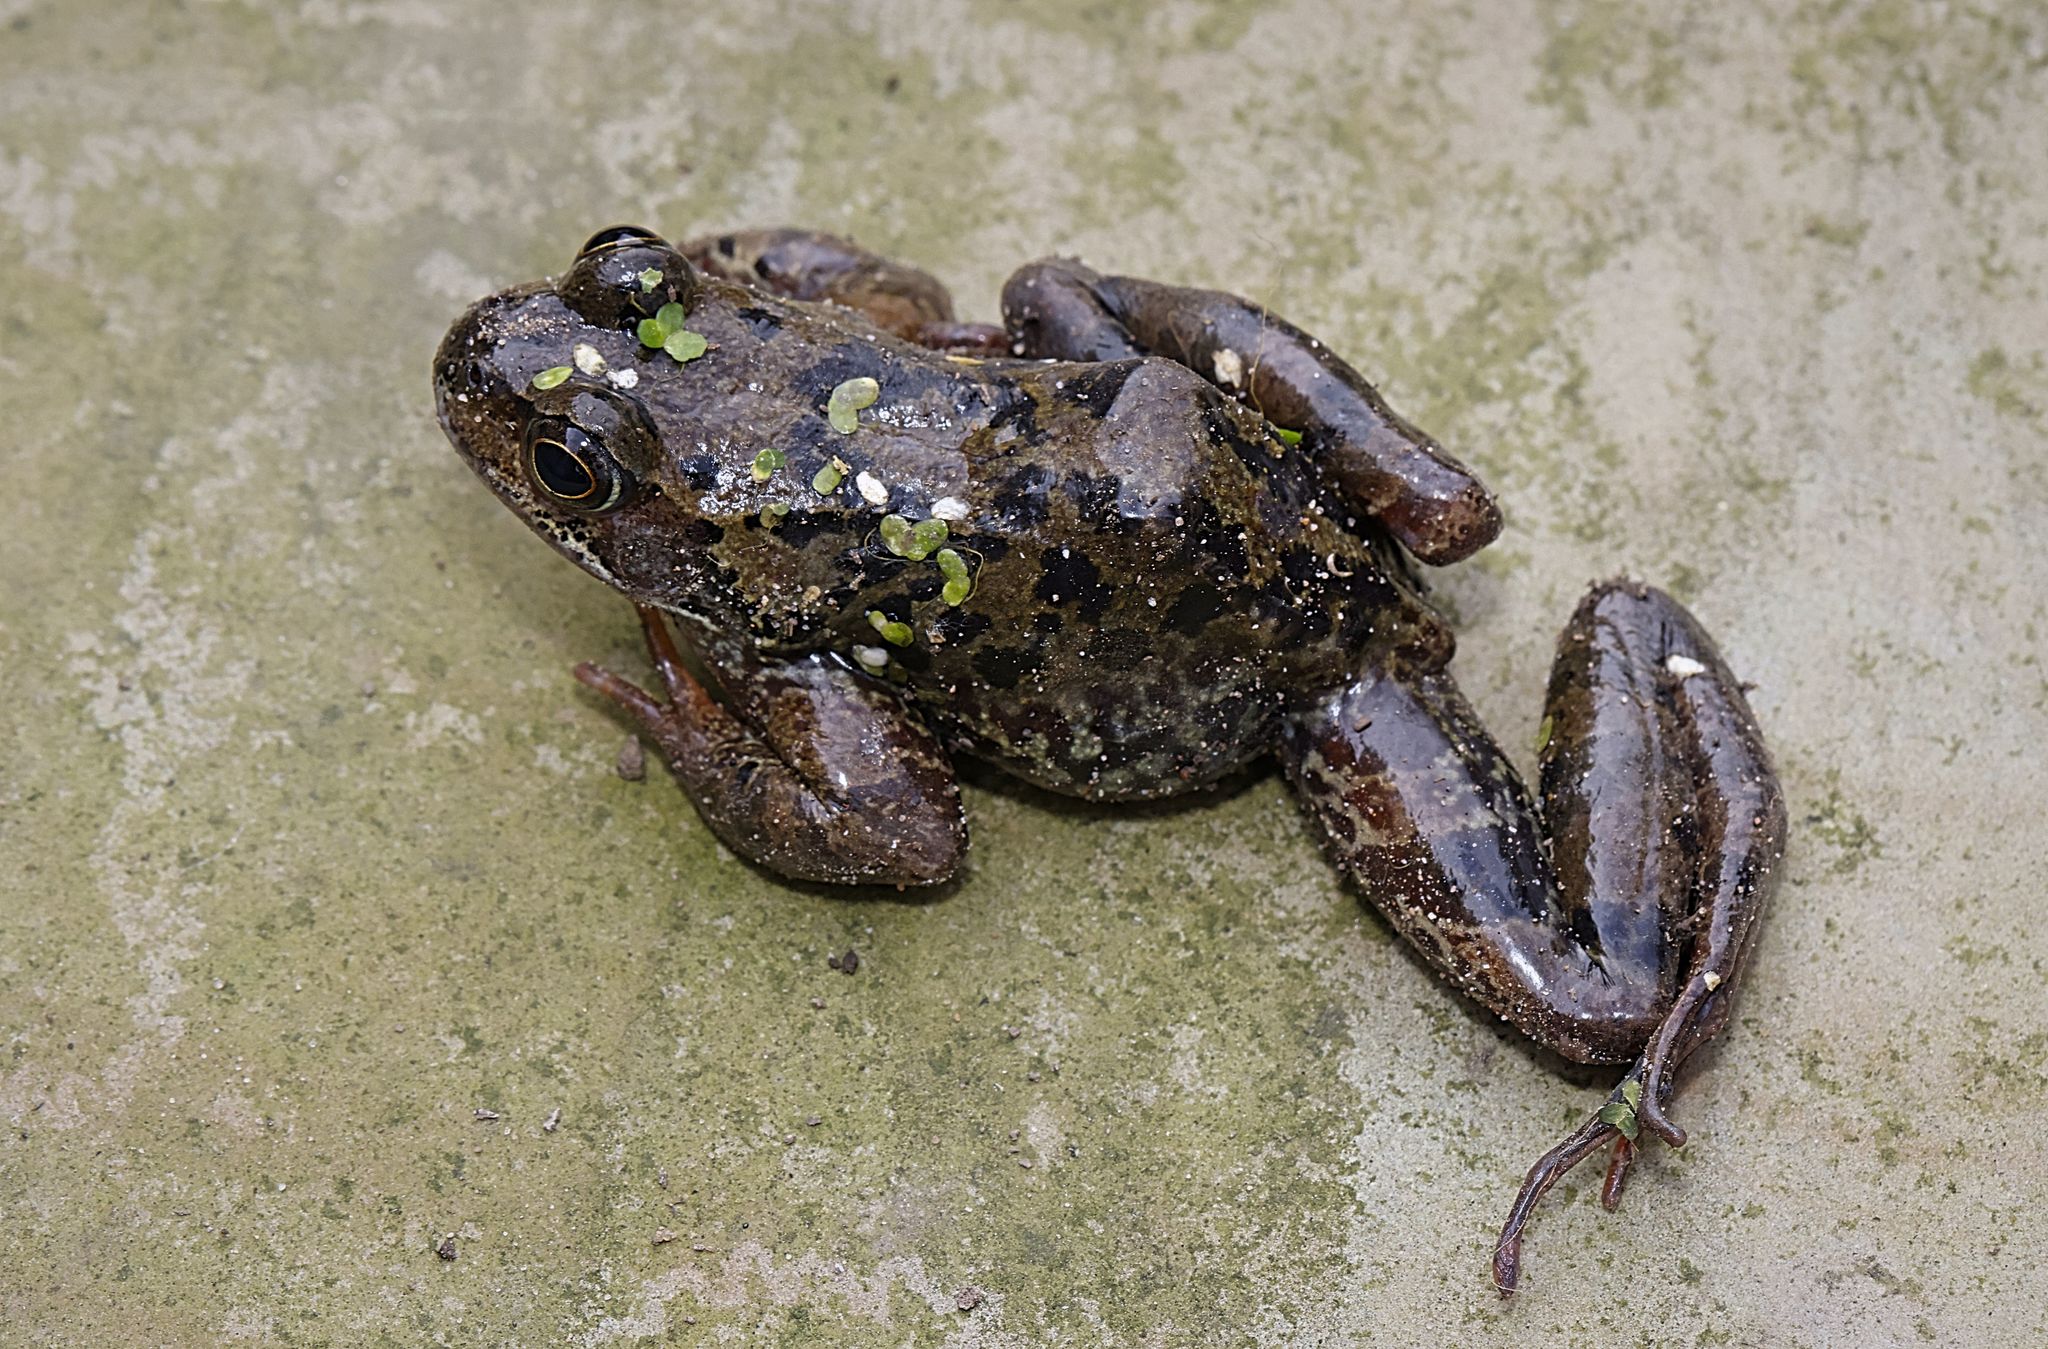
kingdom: Animalia
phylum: Chordata
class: Amphibia
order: Anura
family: Ranidae
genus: Rana
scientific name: Rana temporaria
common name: Common frog
